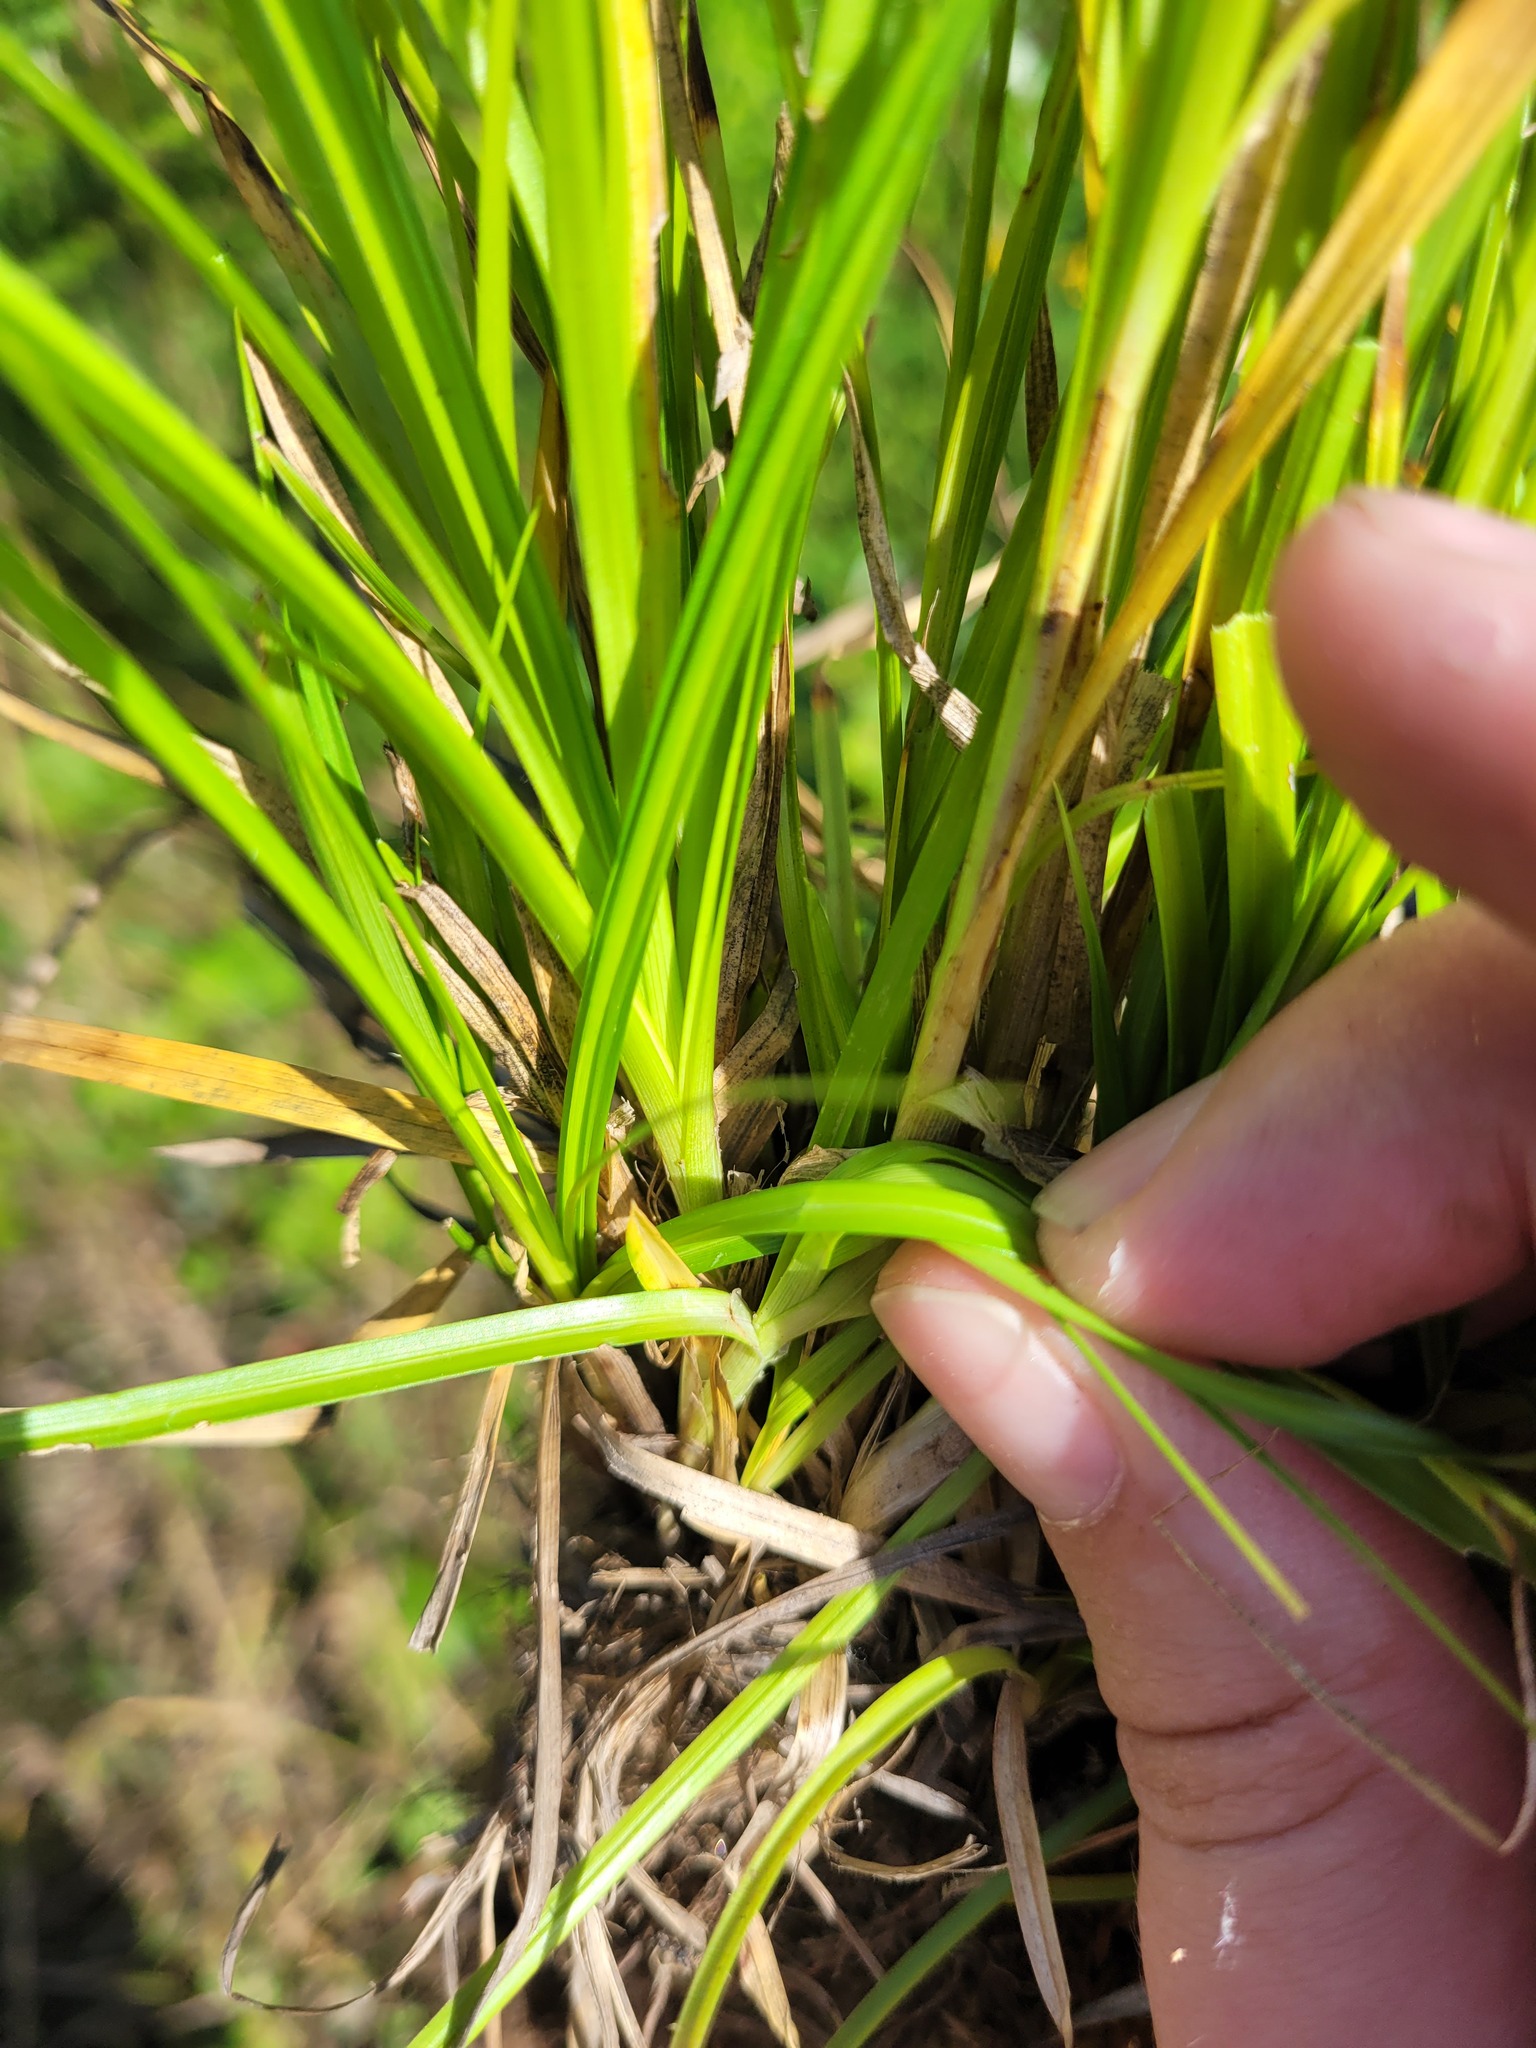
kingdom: Plantae
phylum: Tracheophyta
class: Liliopsida
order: Poales
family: Cyperaceae
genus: Carex
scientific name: Carex muricata
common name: Rough sedge
